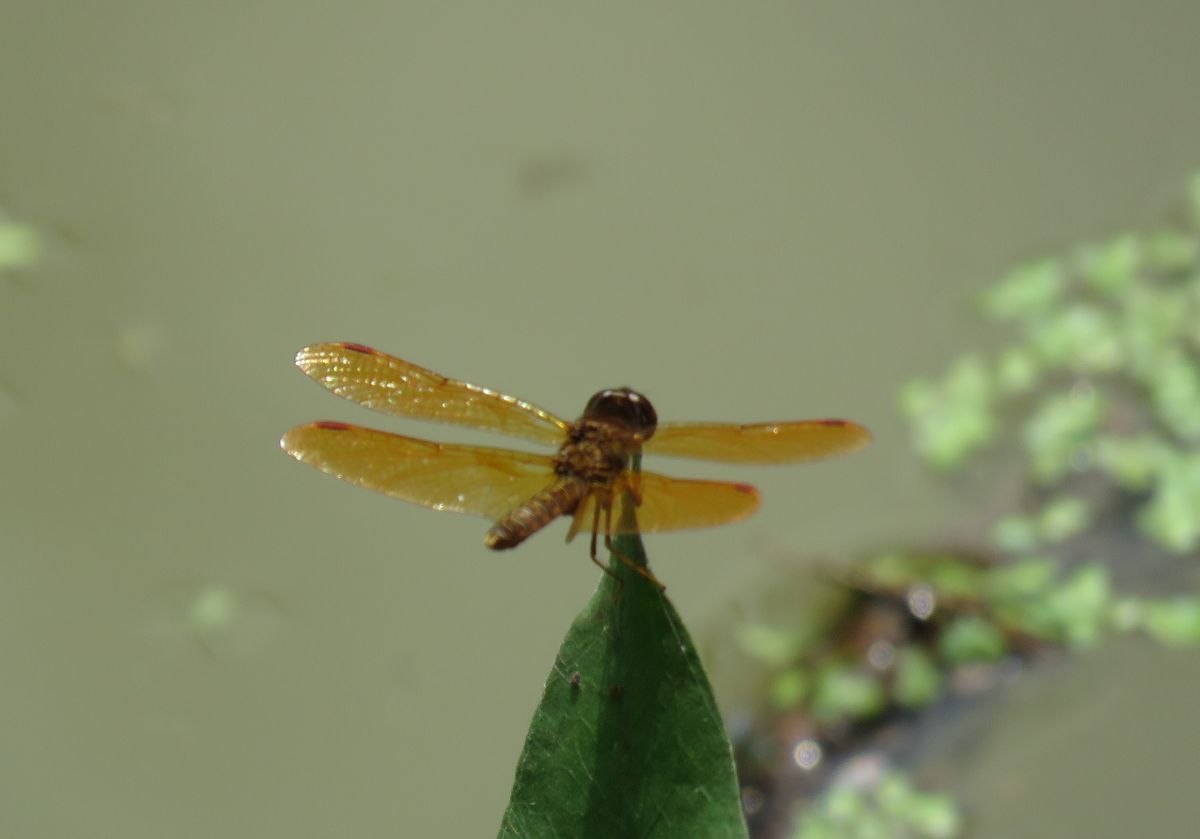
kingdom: Animalia
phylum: Arthropoda
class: Insecta
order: Odonata
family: Libellulidae
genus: Perithemis
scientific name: Perithemis tenera
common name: Eastern amberwing
